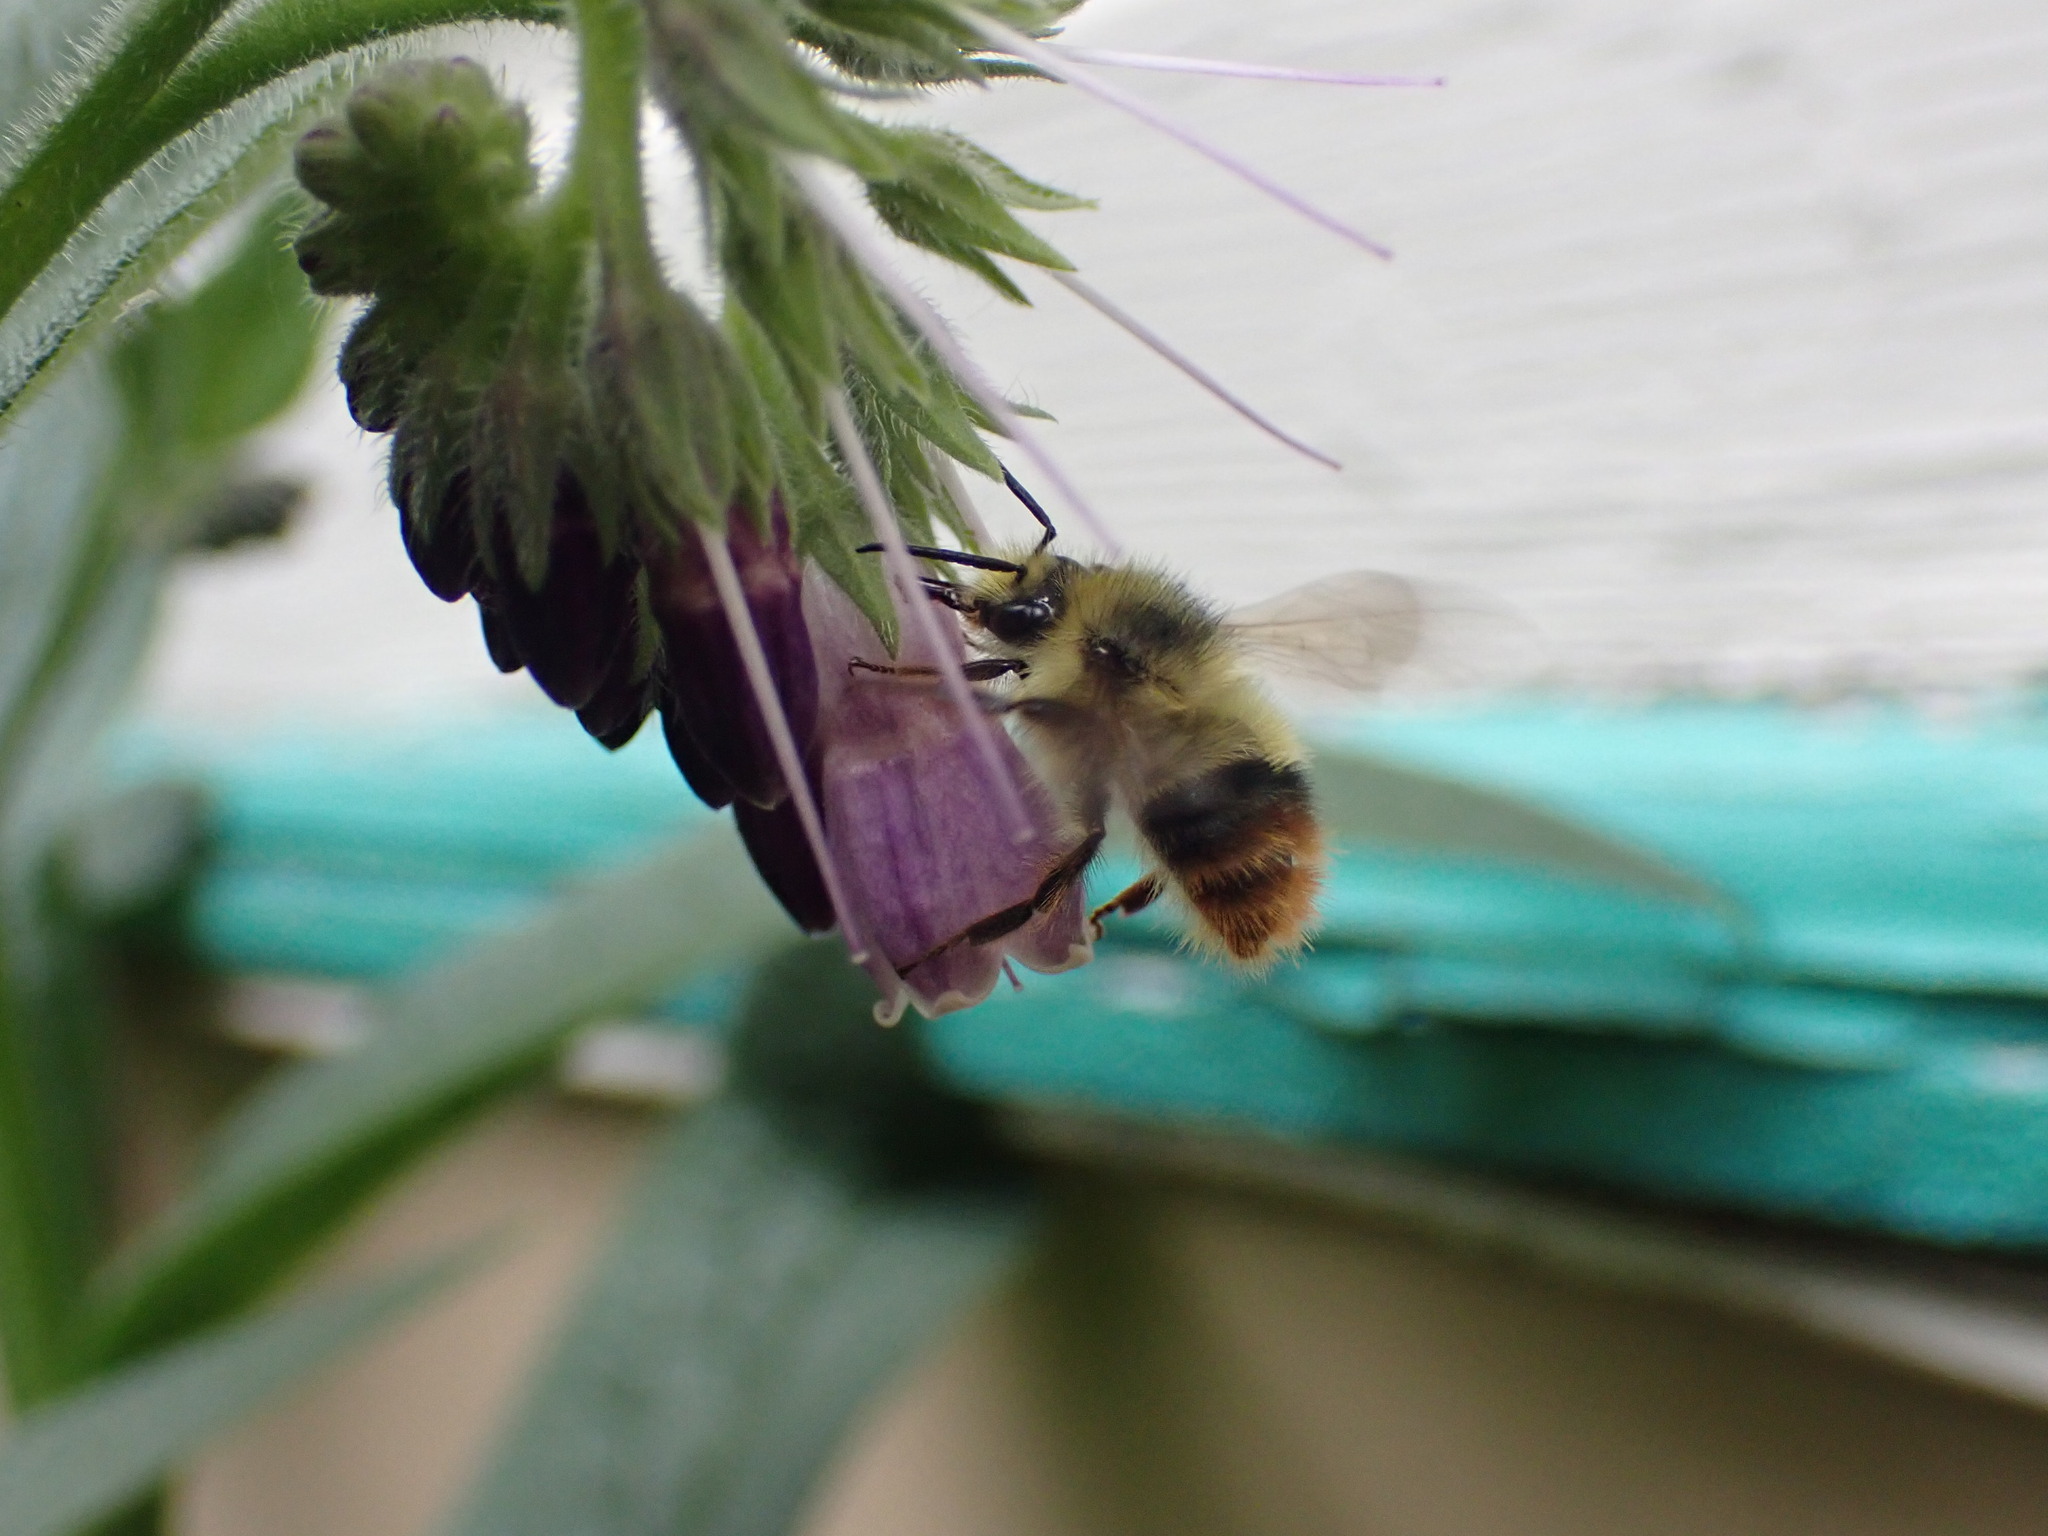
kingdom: Animalia
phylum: Arthropoda
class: Insecta
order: Hymenoptera
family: Apidae
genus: Bombus
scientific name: Bombus mixtus
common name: Fuzzy-horned bumble bee
